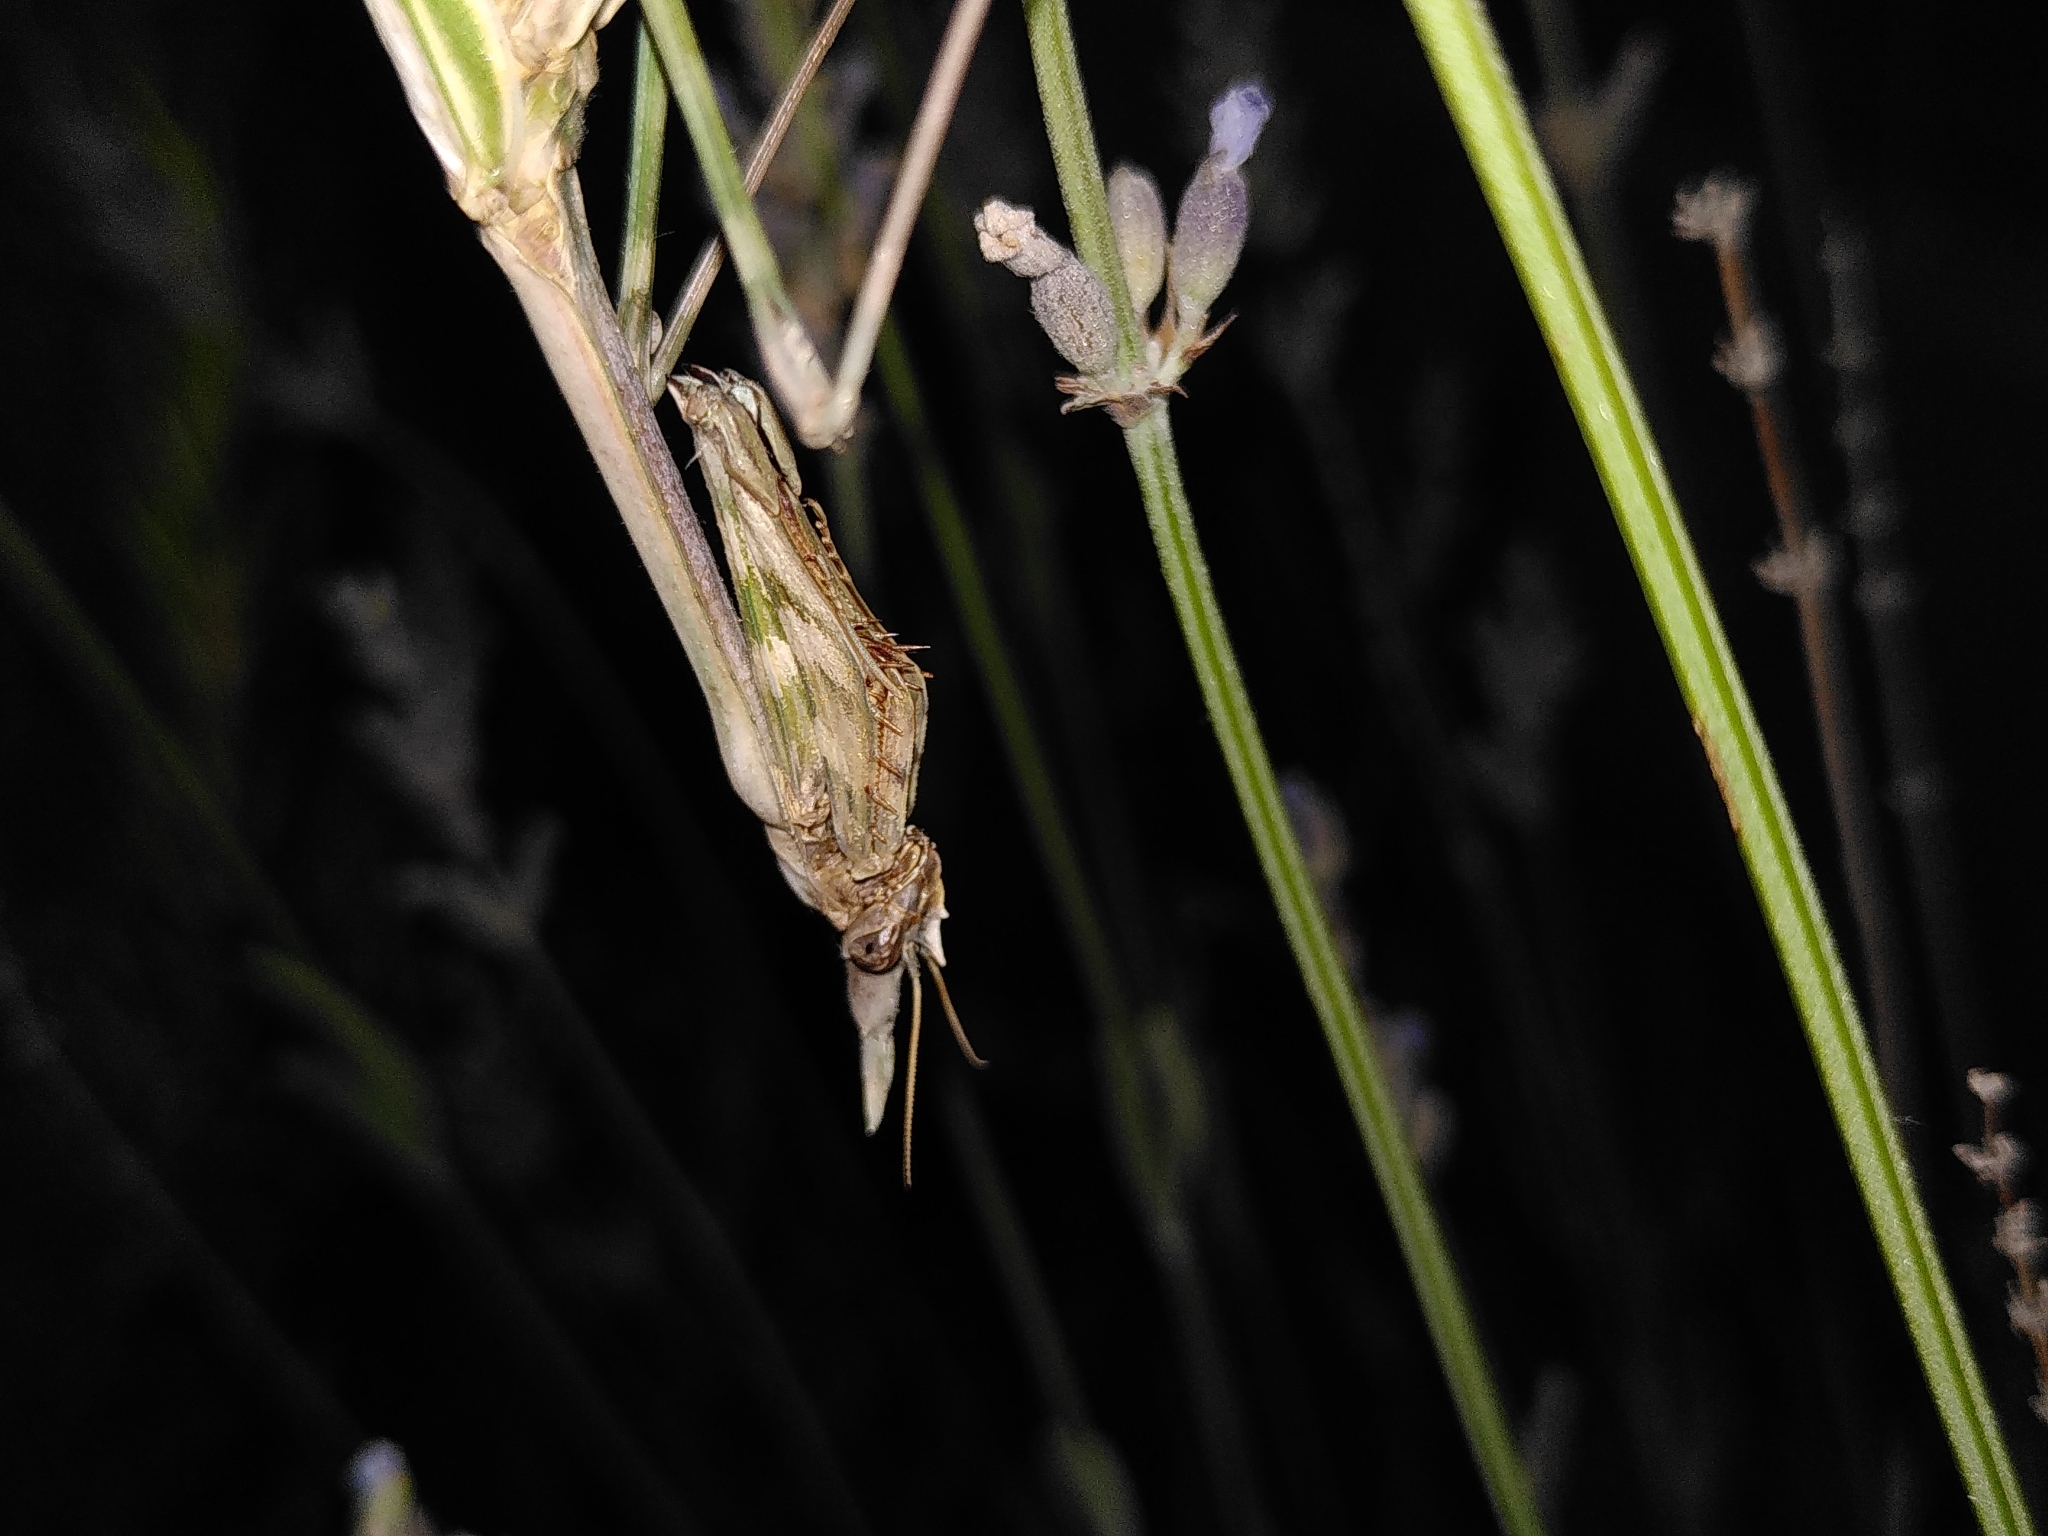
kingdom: Animalia
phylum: Arthropoda
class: Insecta
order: Mantodea
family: Empusidae
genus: Empusa
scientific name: Empusa pennata
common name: Conehead mantis
